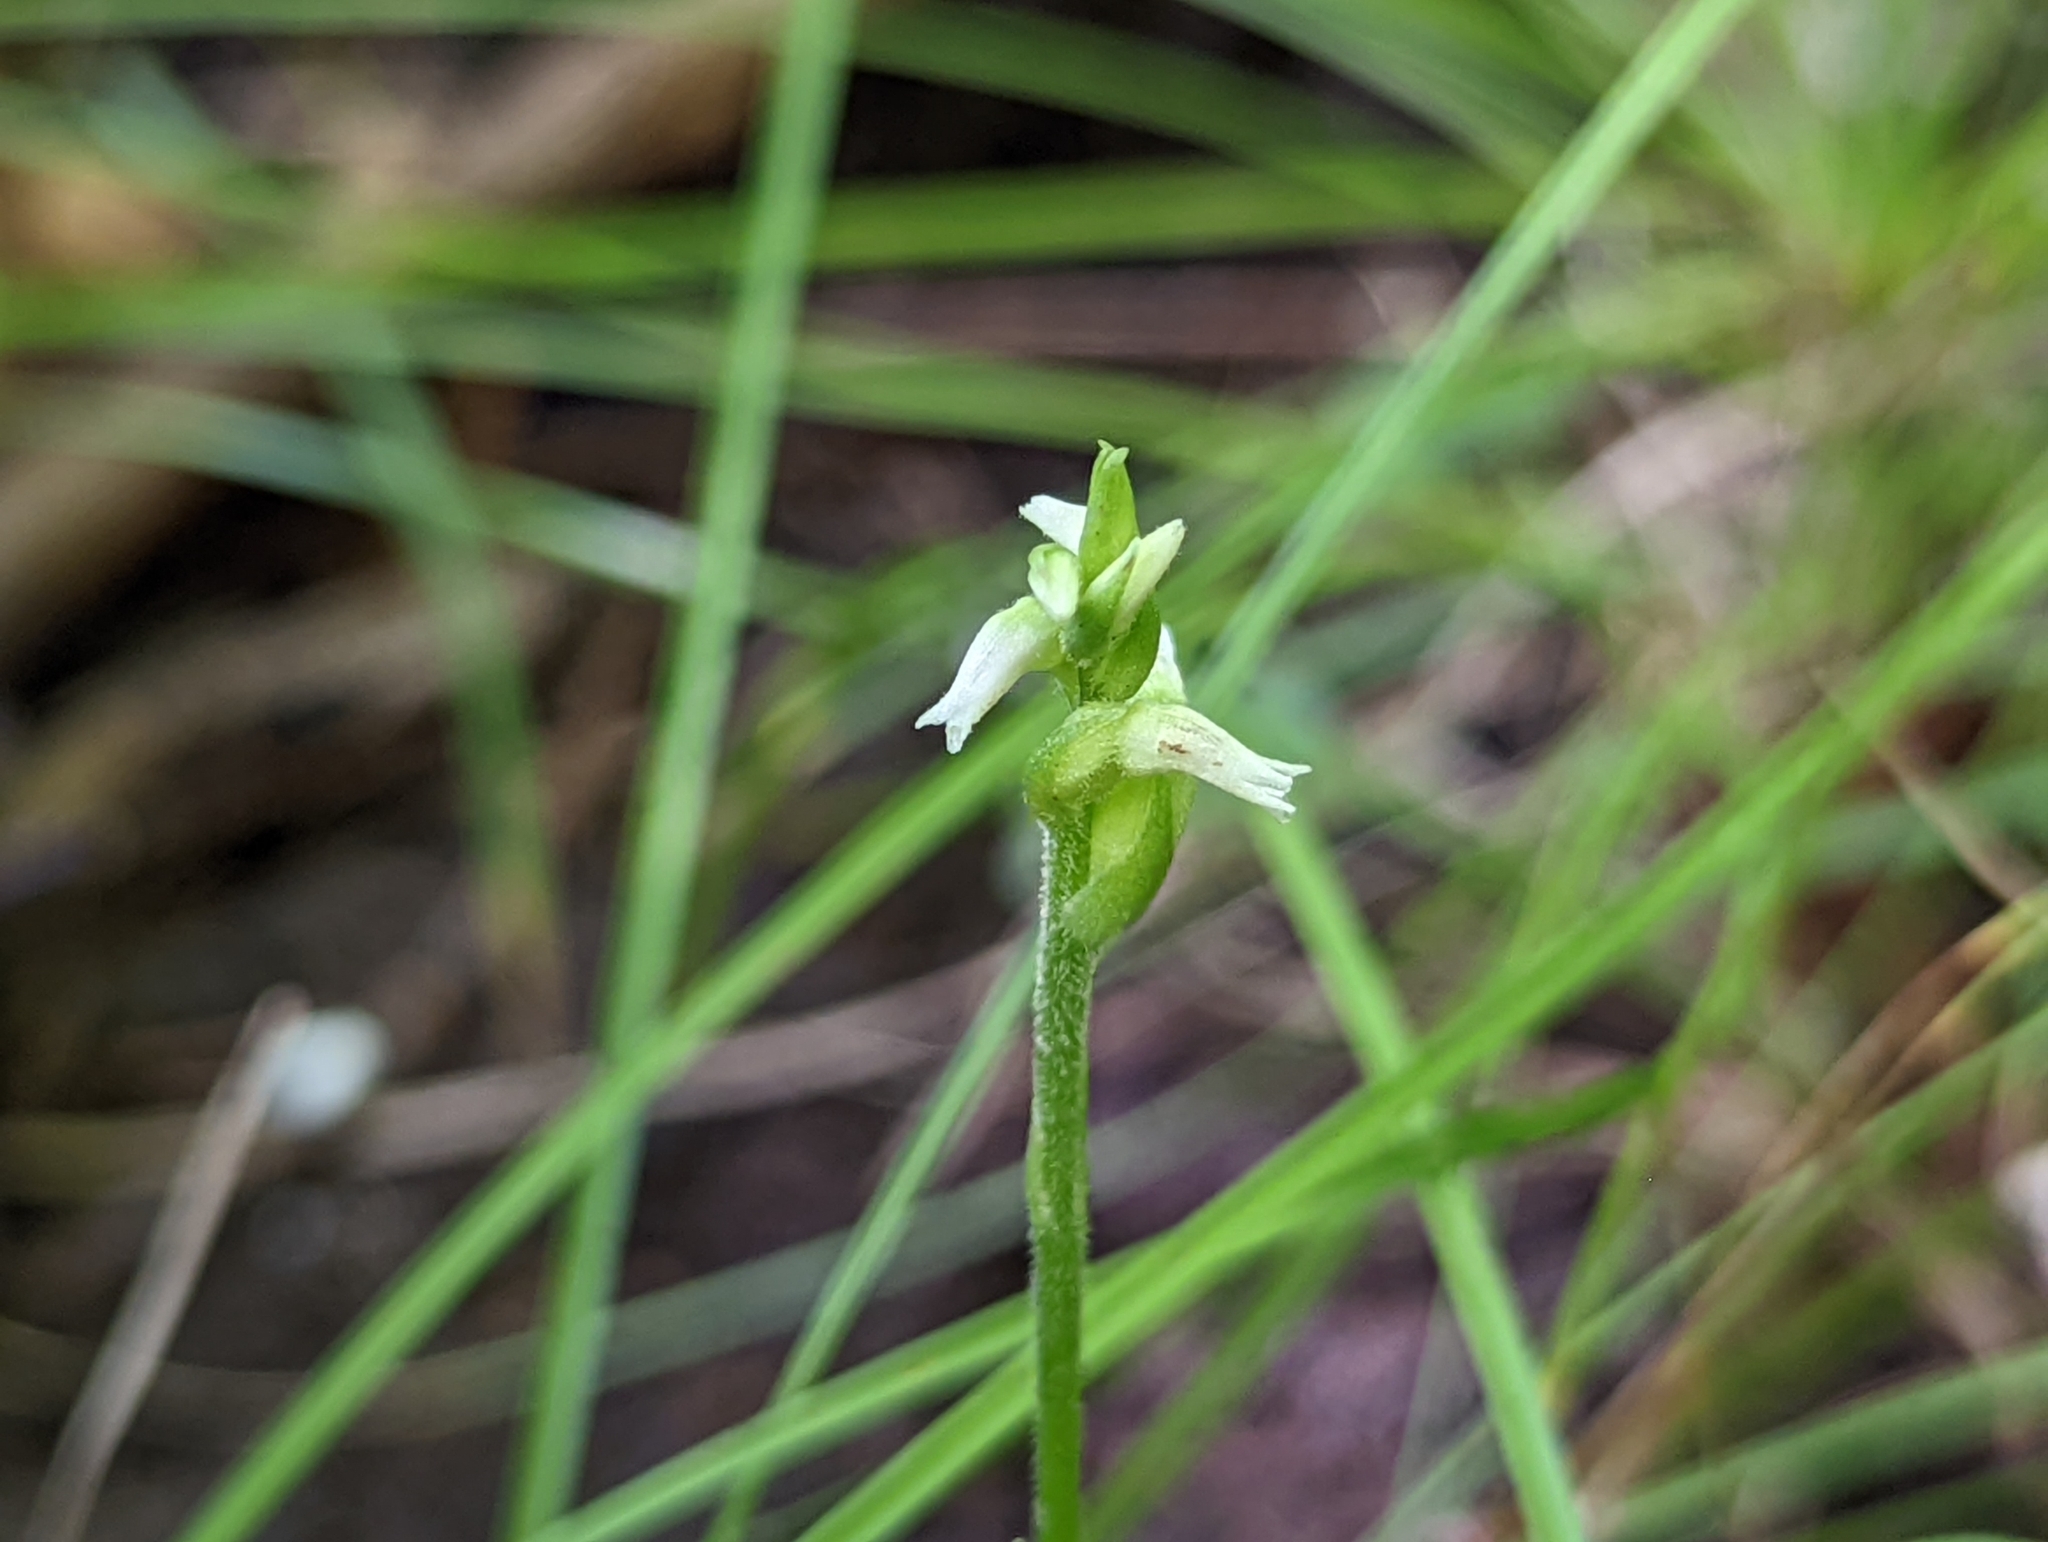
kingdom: Plantae
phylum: Tracheophyta
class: Liliopsida
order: Asparagales
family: Orchidaceae
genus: Spiranthes
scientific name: Spiranthes ovalis
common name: October ladies'-tresses
